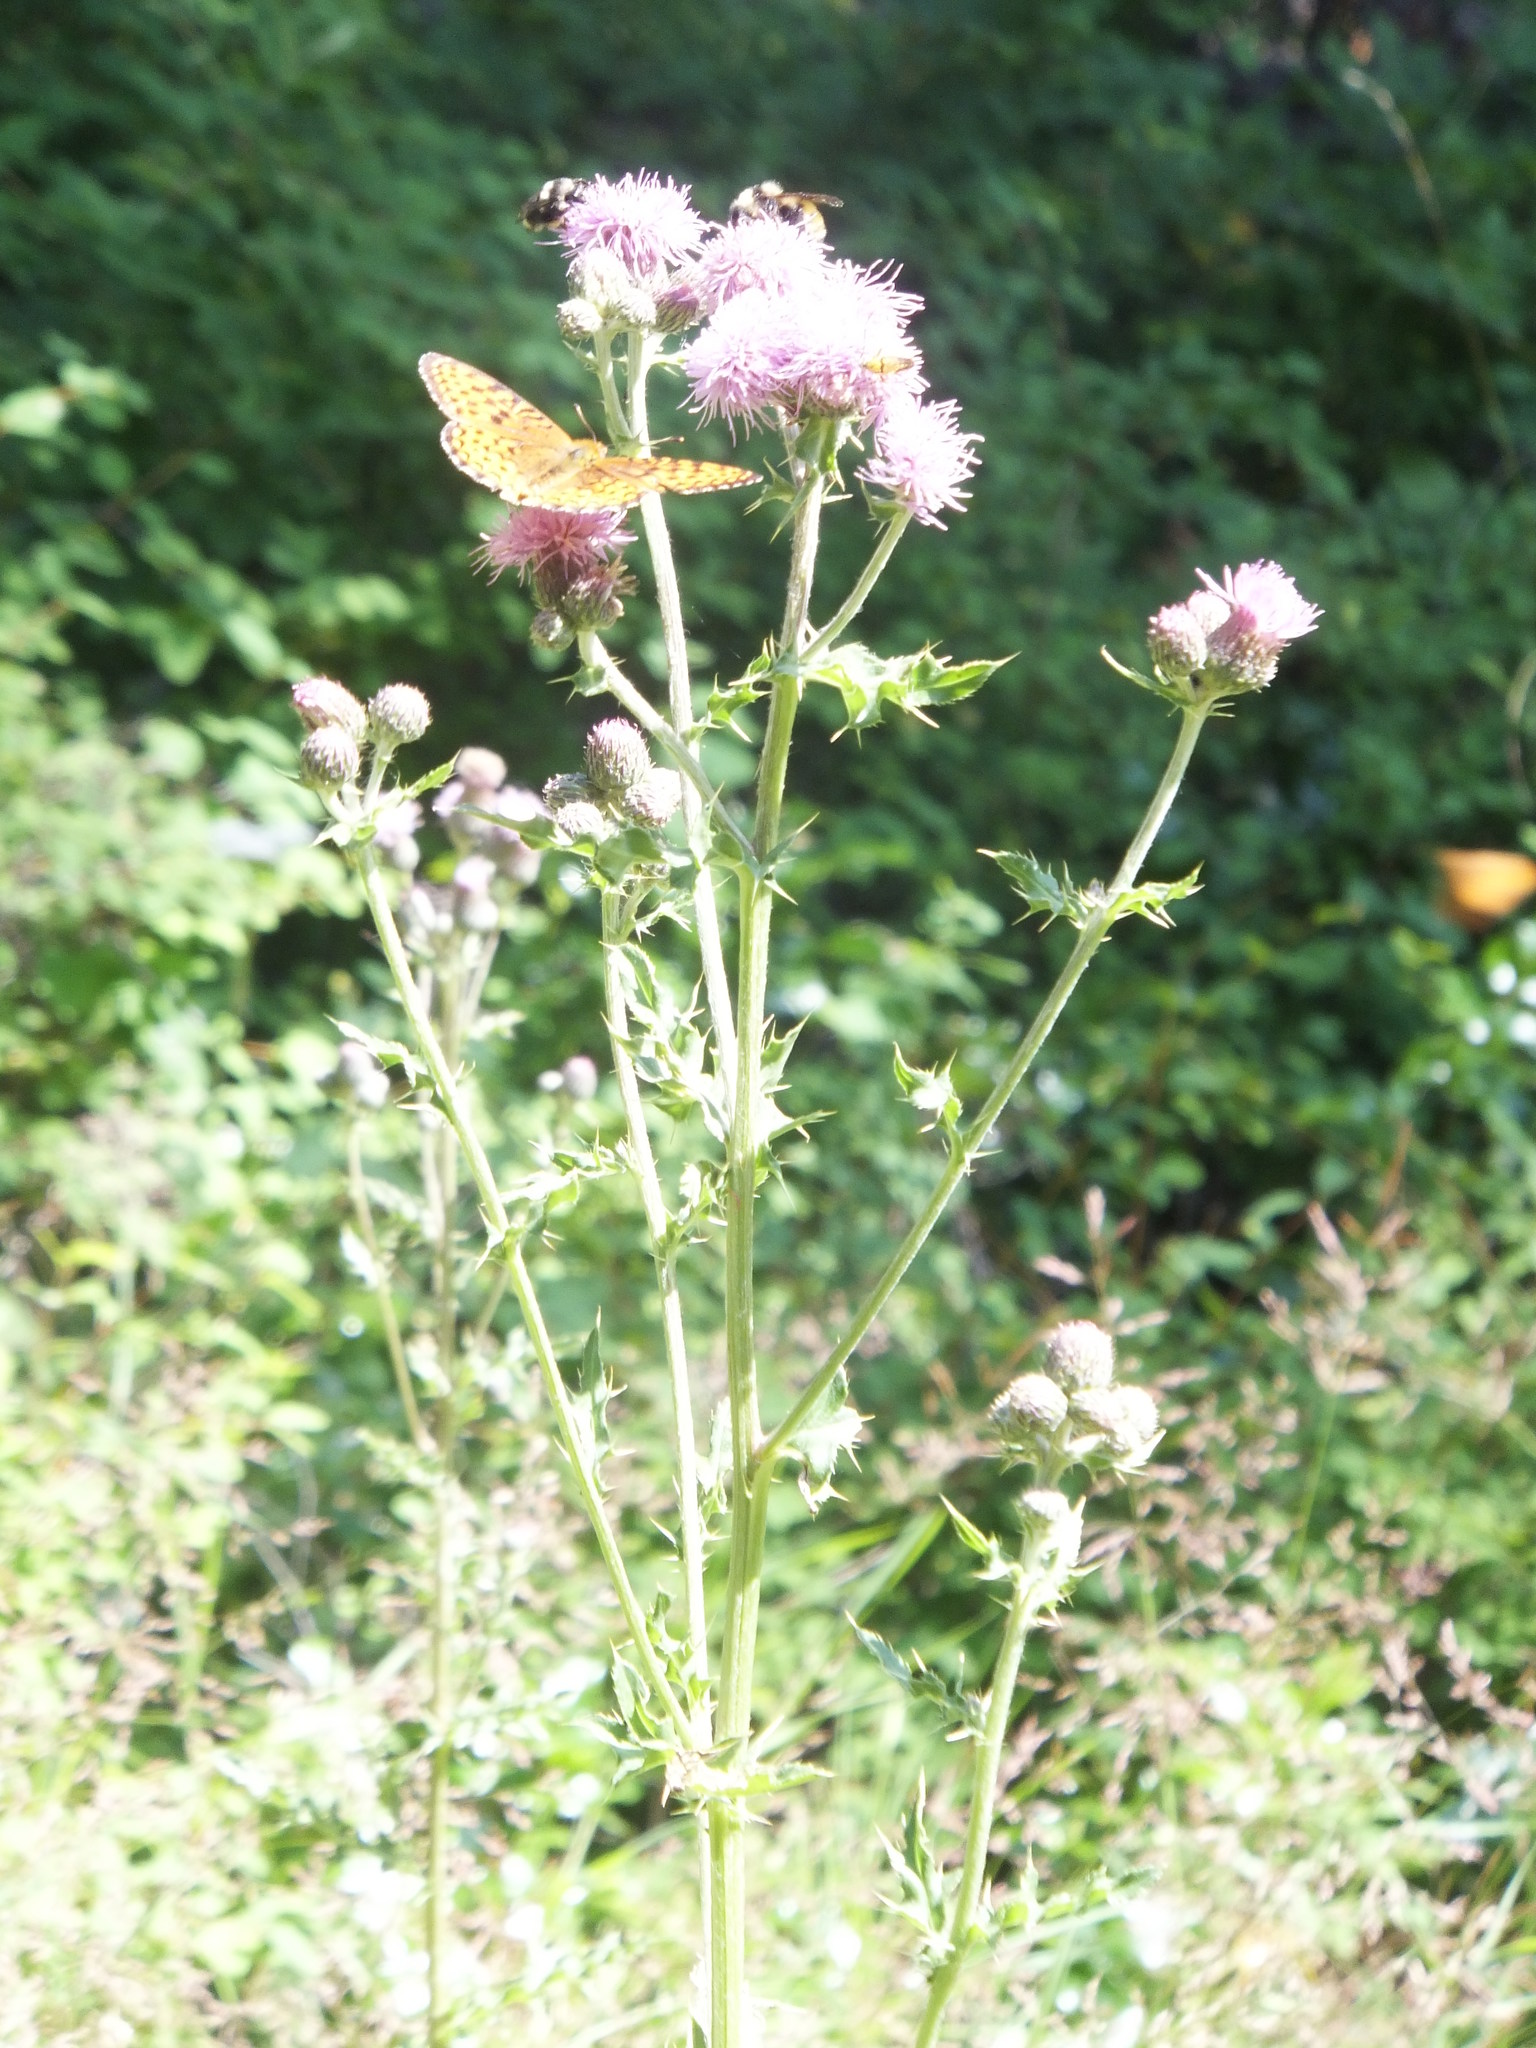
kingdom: Plantae
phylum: Tracheophyta
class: Magnoliopsida
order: Asterales
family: Asteraceae
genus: Cirsium
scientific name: Cirsium arvense
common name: Creeping thistle
